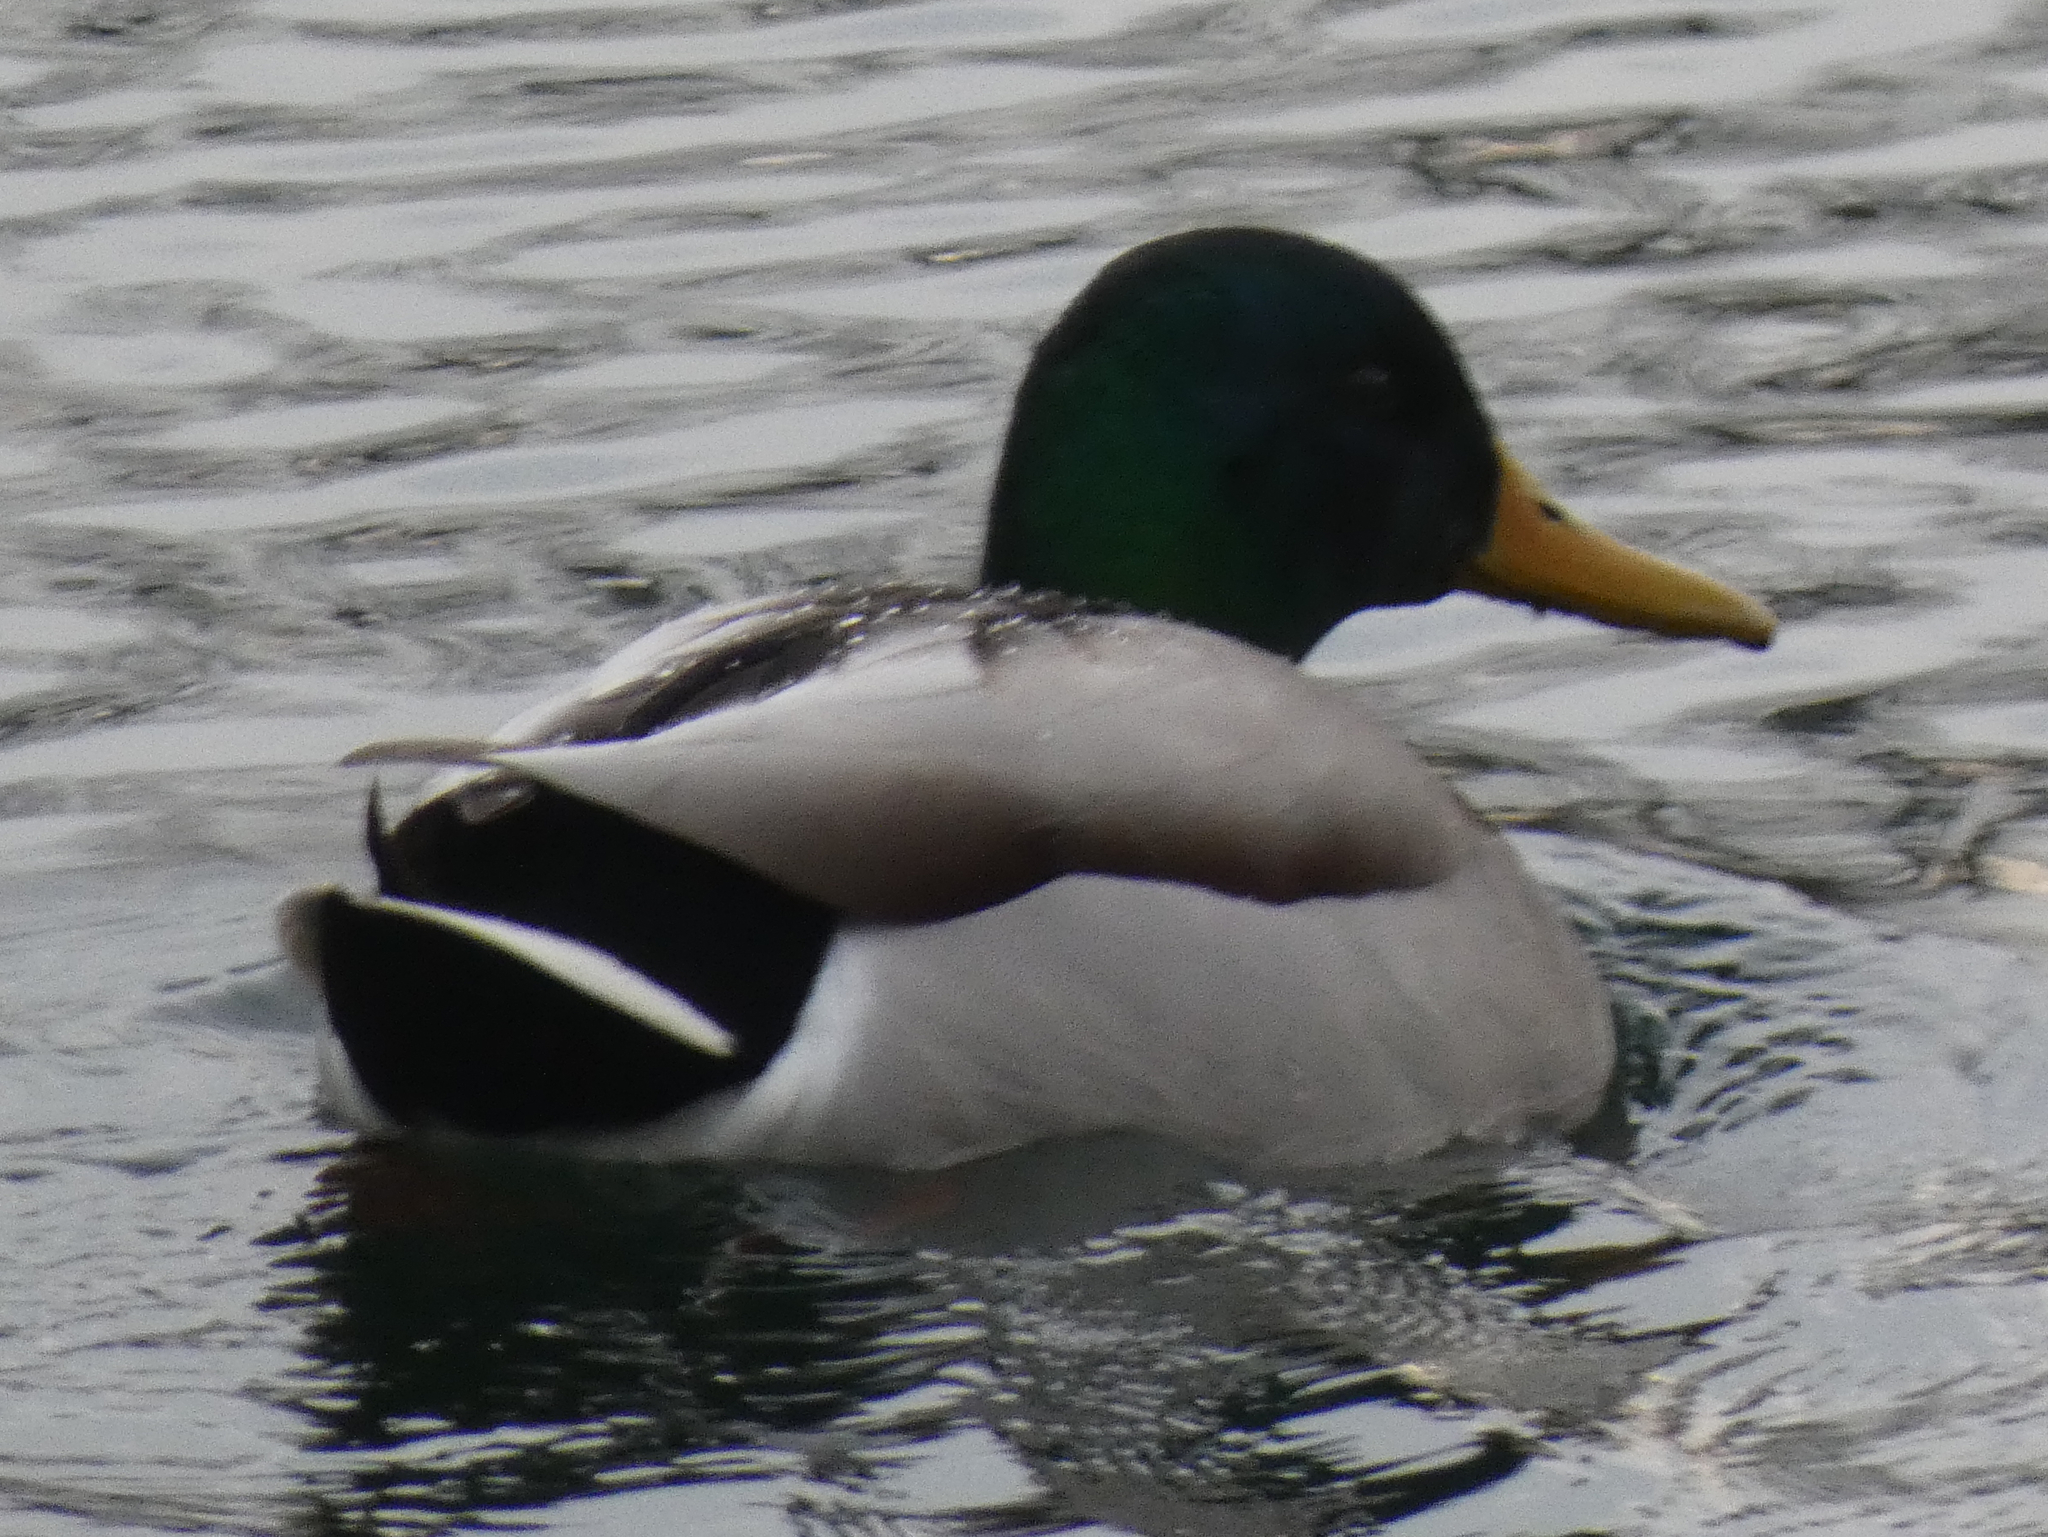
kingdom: Animalia
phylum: Chordata
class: Aves
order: Anseriformes
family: Anatidae
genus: Anas
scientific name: Anas platyrhynchos
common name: Mallard
